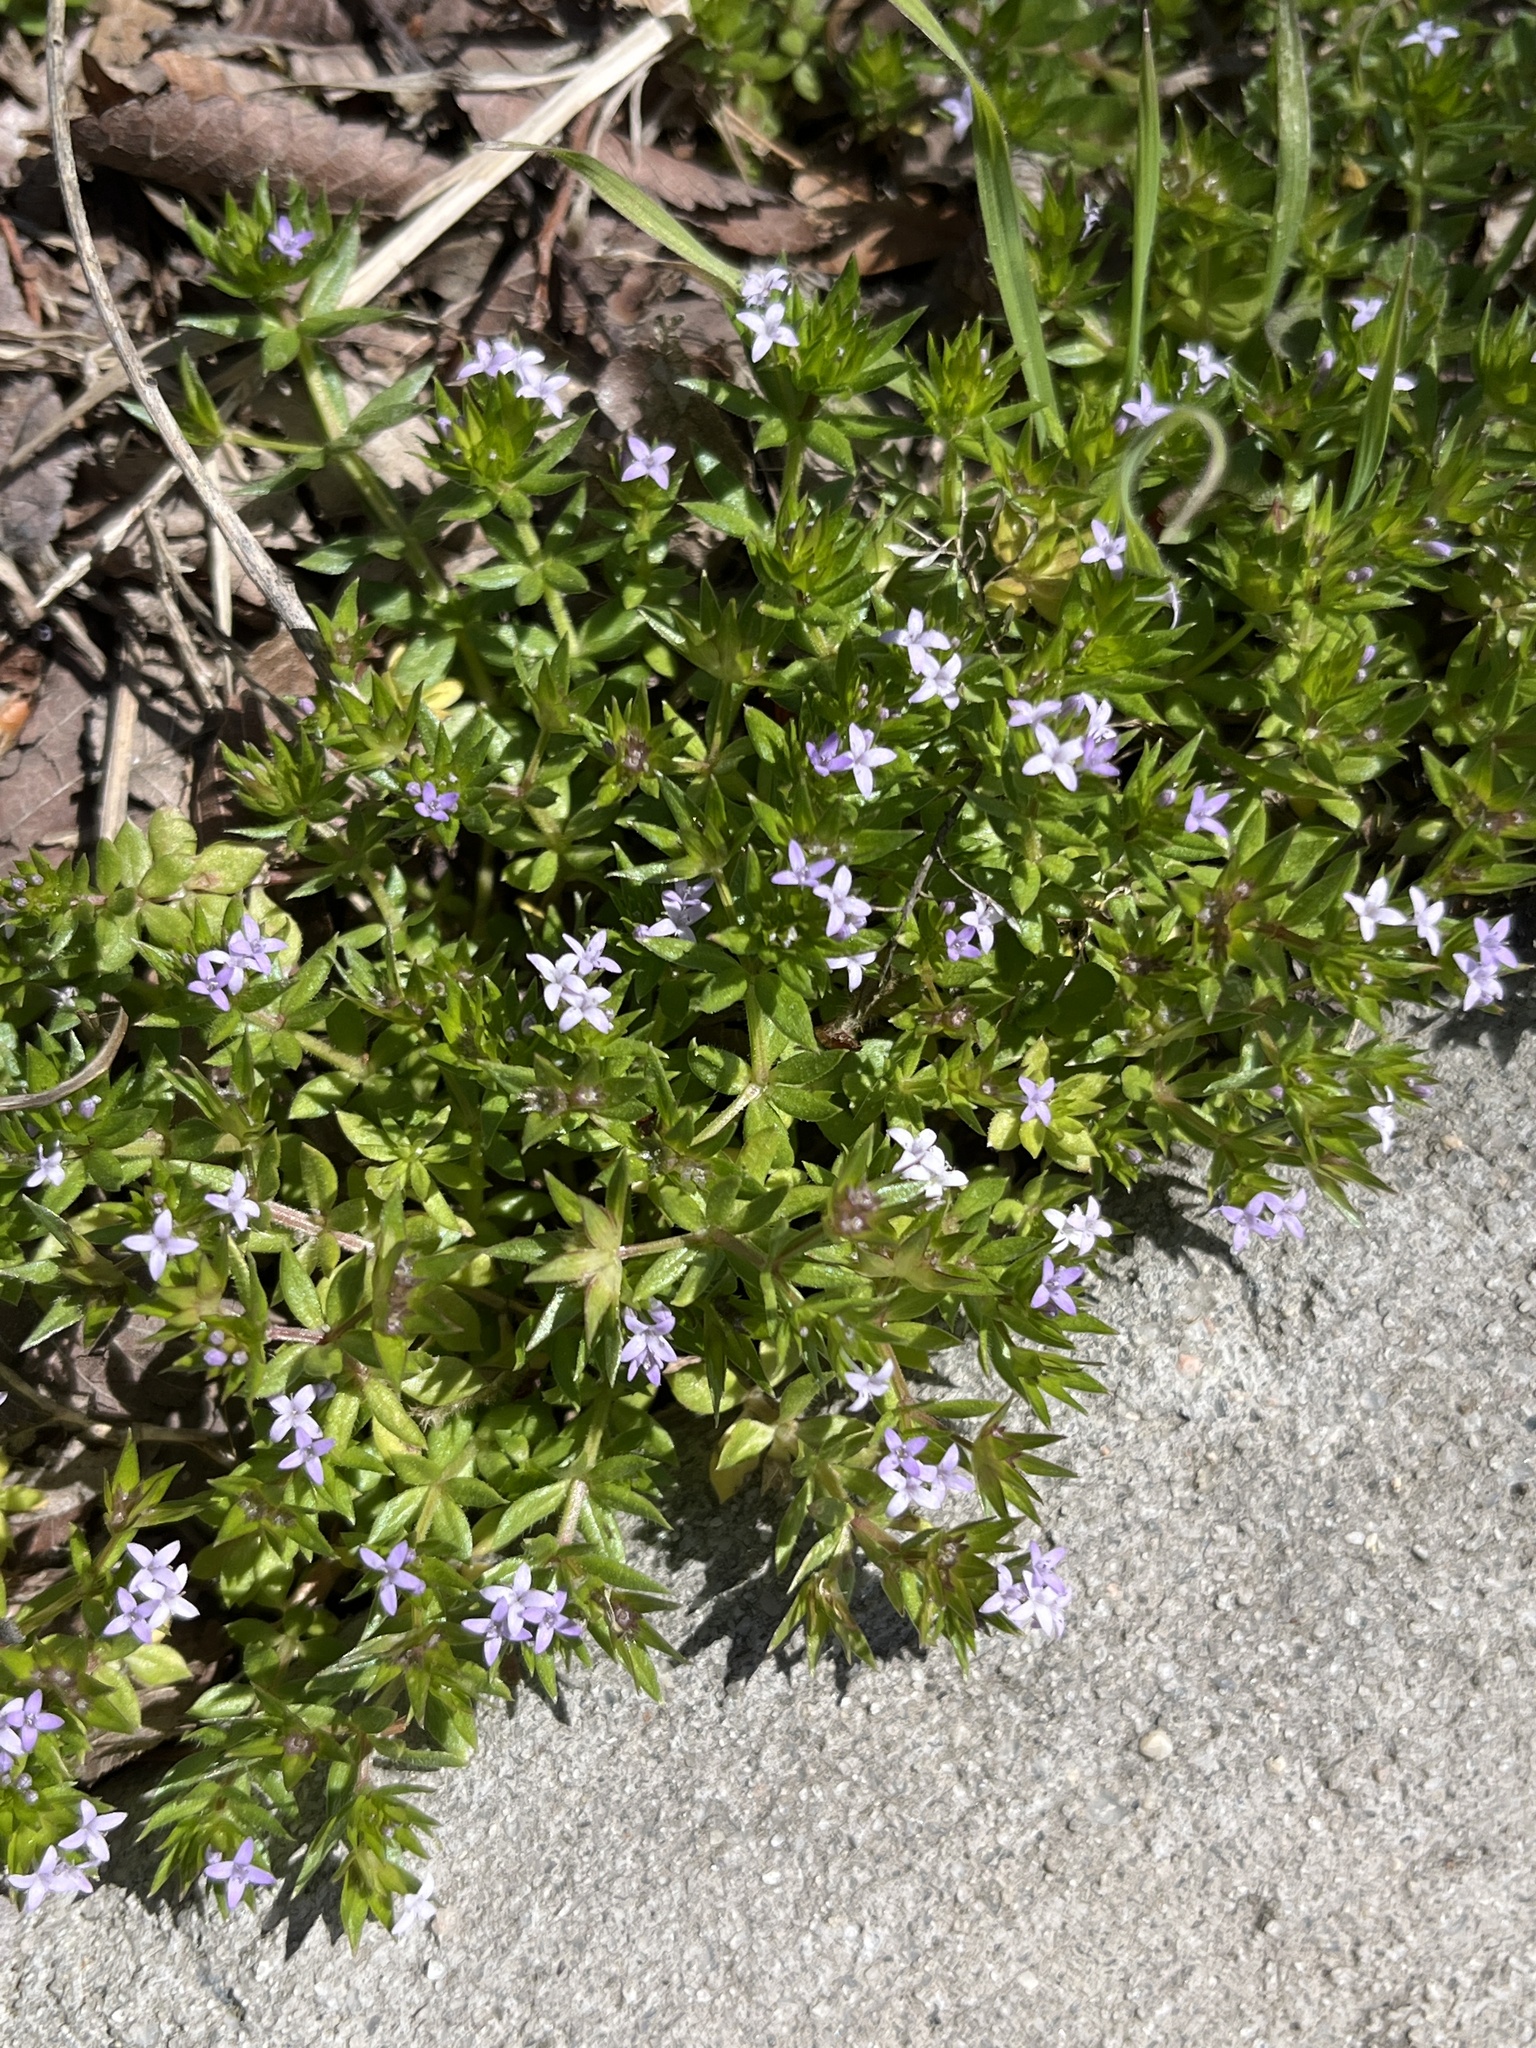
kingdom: Plantae
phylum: Tracheophyta
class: Magnoliopsida
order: Gentianales
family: Rubiaceae
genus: Sherardia
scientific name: Sherardia arvensis
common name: Field madder
